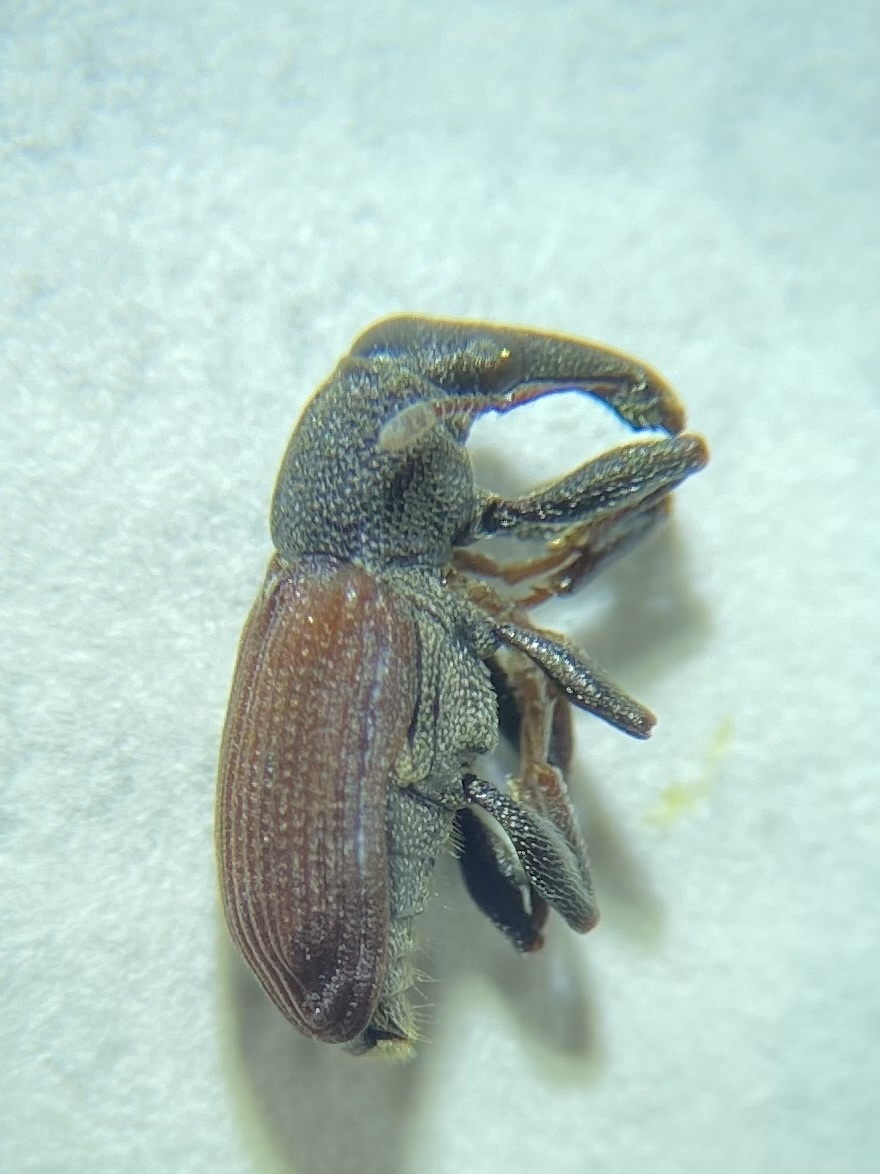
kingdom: Animalia
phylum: Arthropoda
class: Insecta
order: Coleoptera
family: Curculionidae
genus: Magdalis
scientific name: Magdalis armicollis
